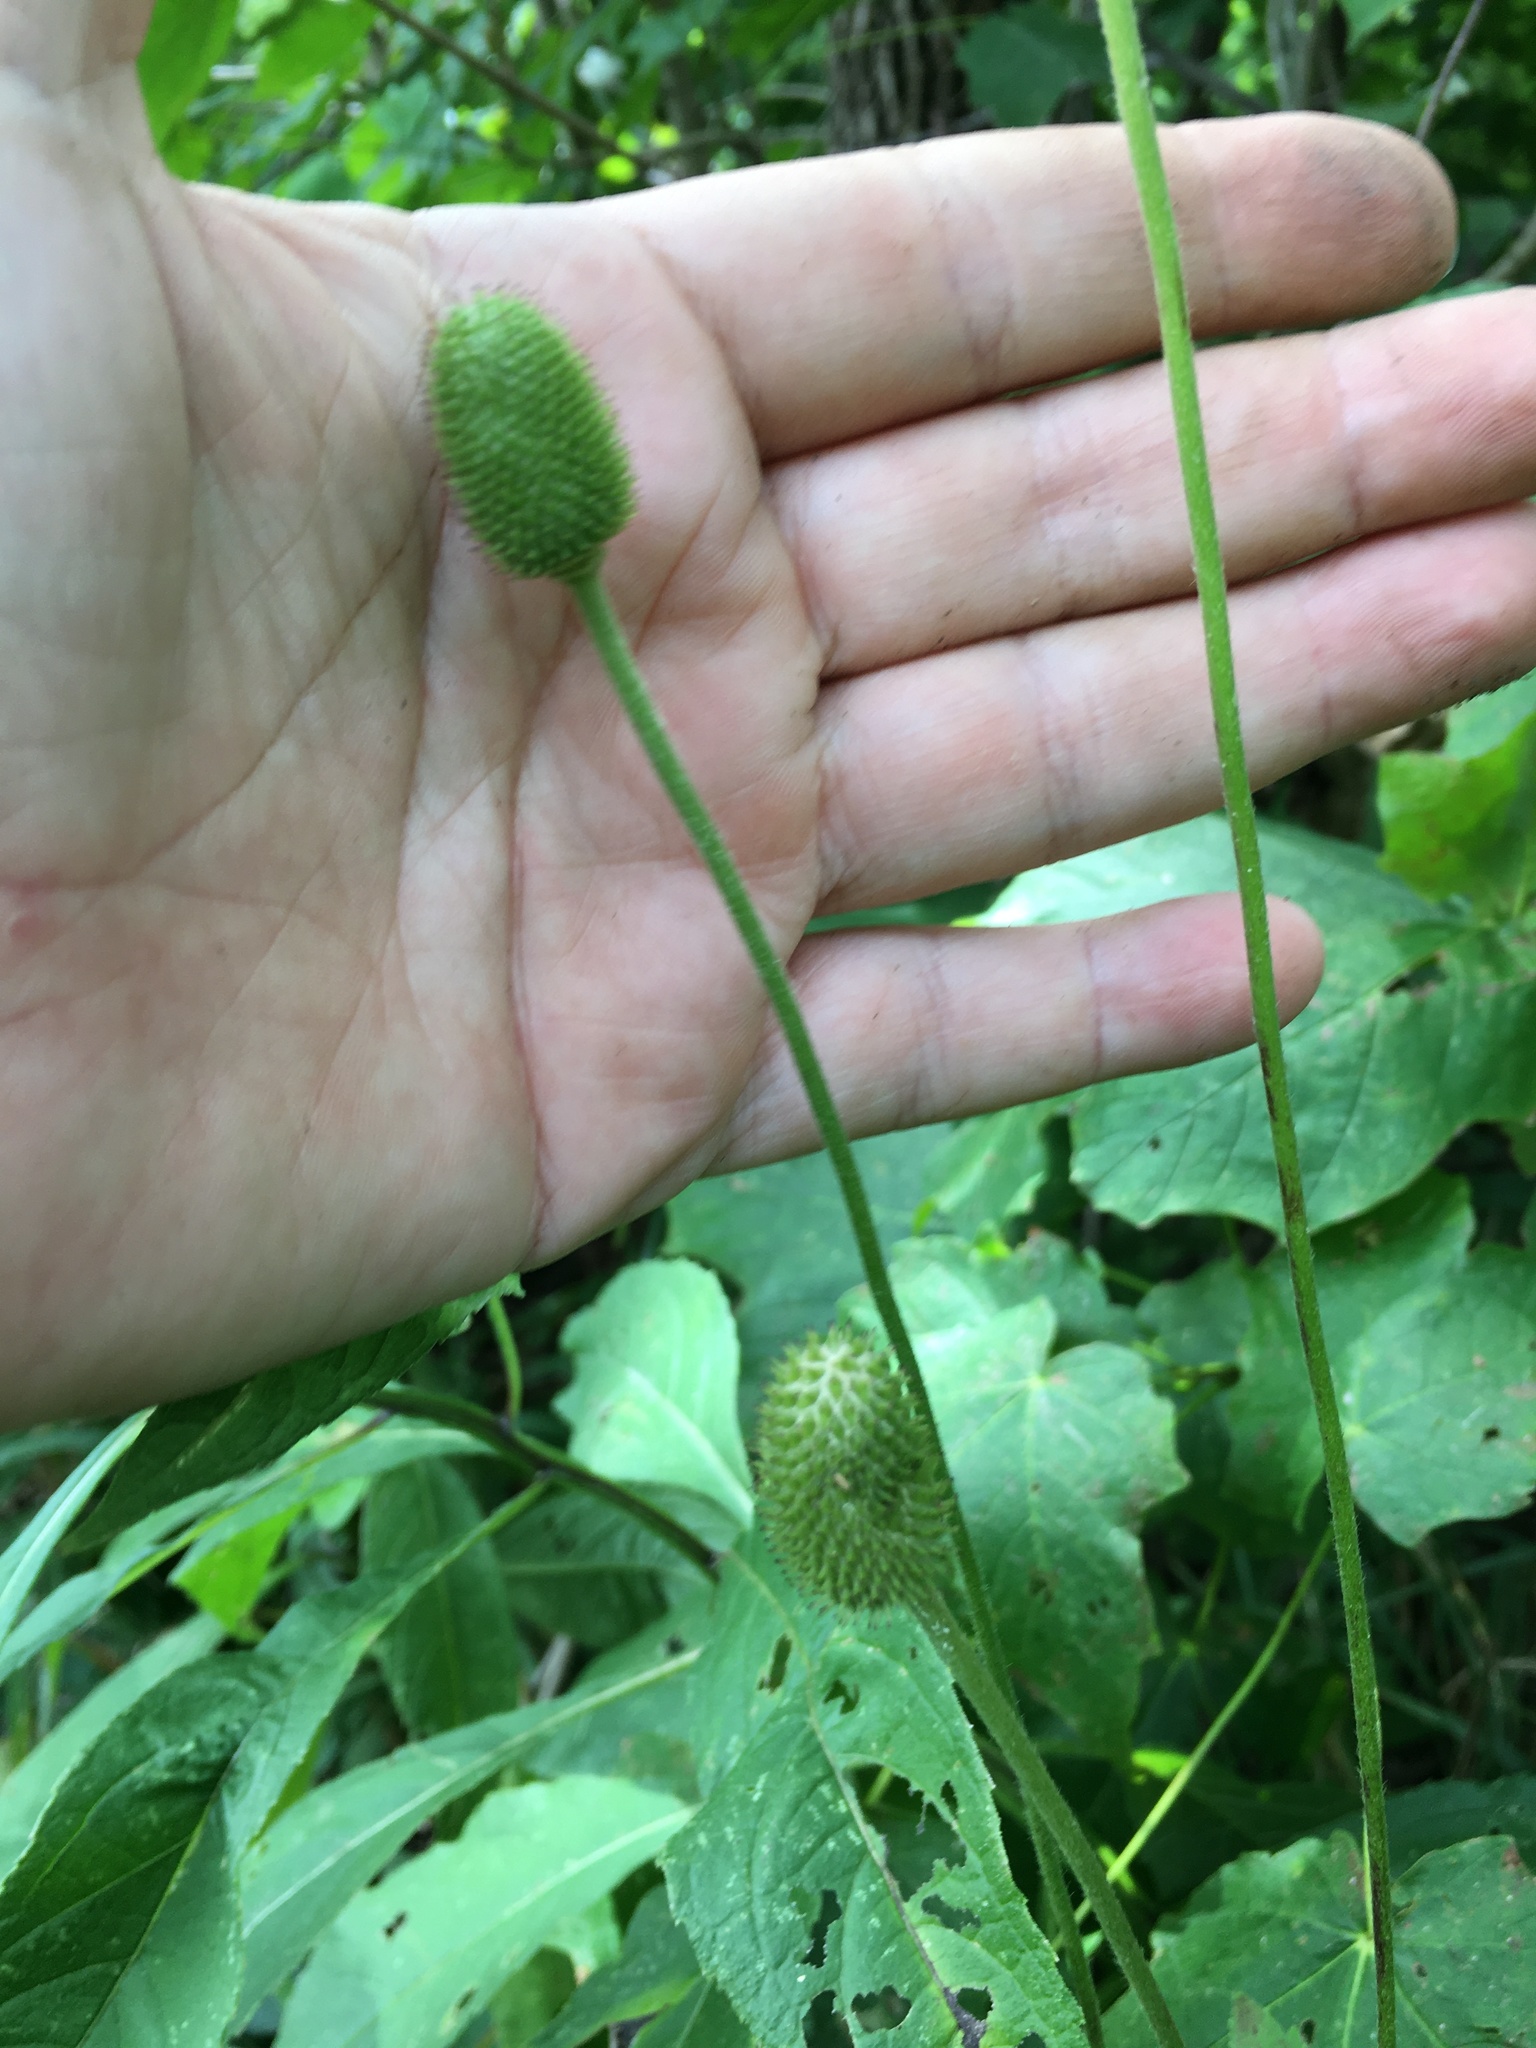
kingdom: Plantae
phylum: Tracheophyta
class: Magnoliopsida
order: Ranunculales
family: Ranunculaceae
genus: Anemone
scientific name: Anemone virginiana
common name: Tall anemone
